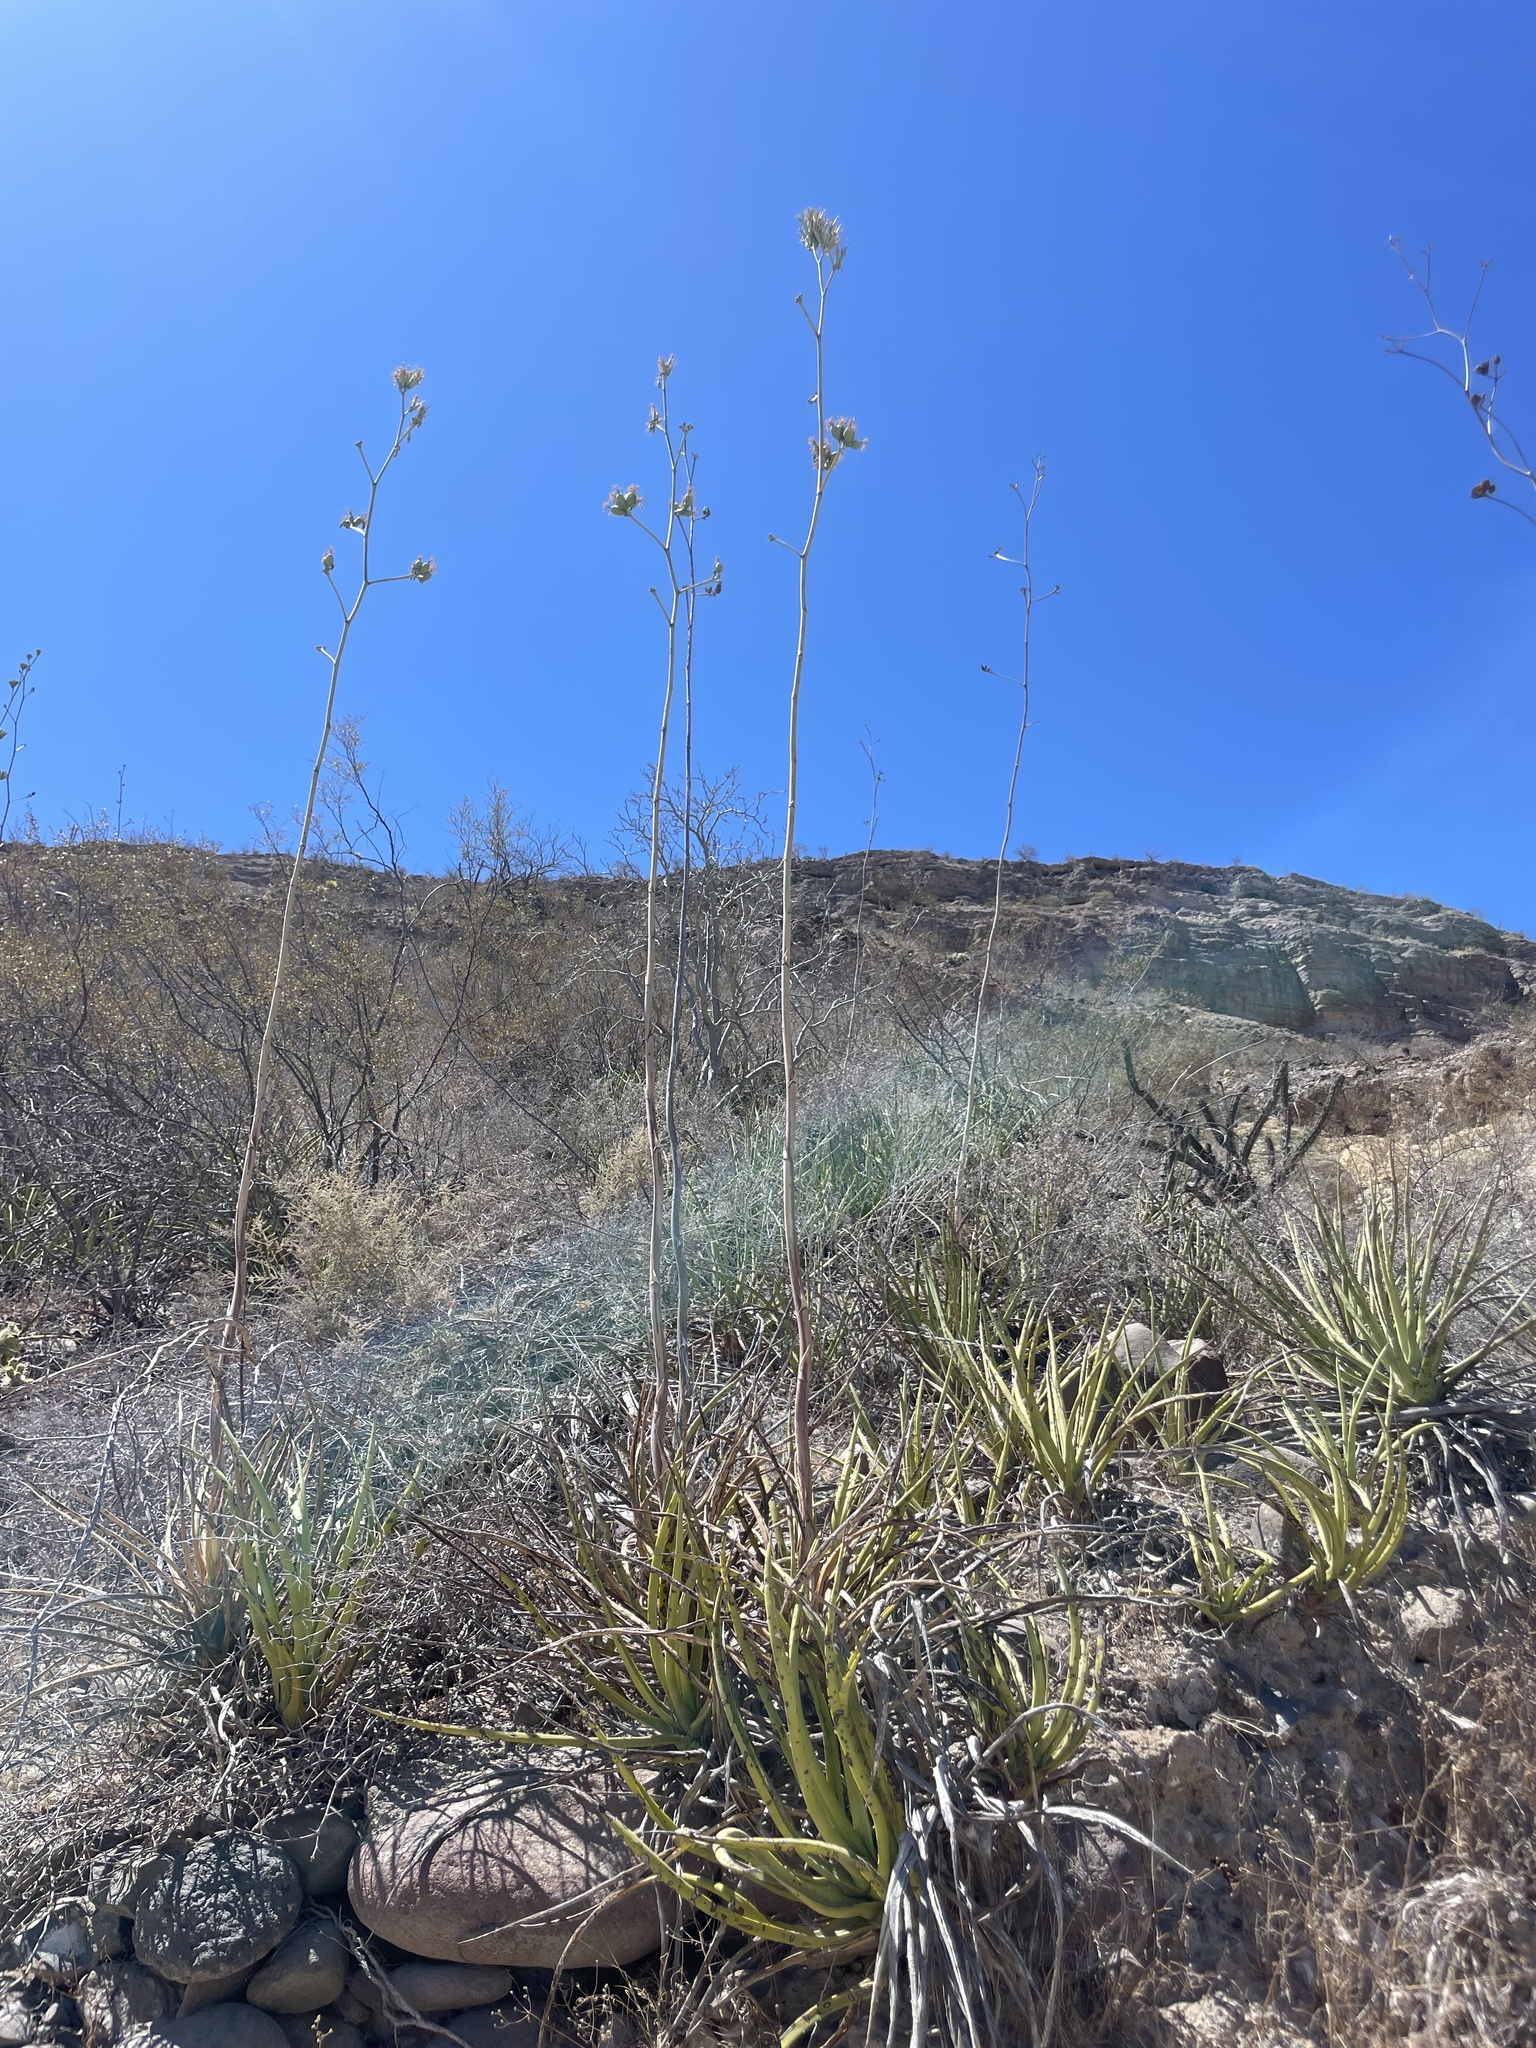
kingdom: Plantae
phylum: Tracheophyta
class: Liliopsida
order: Asparagales
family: Asparagaceae
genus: Agave
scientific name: Agave datylio
